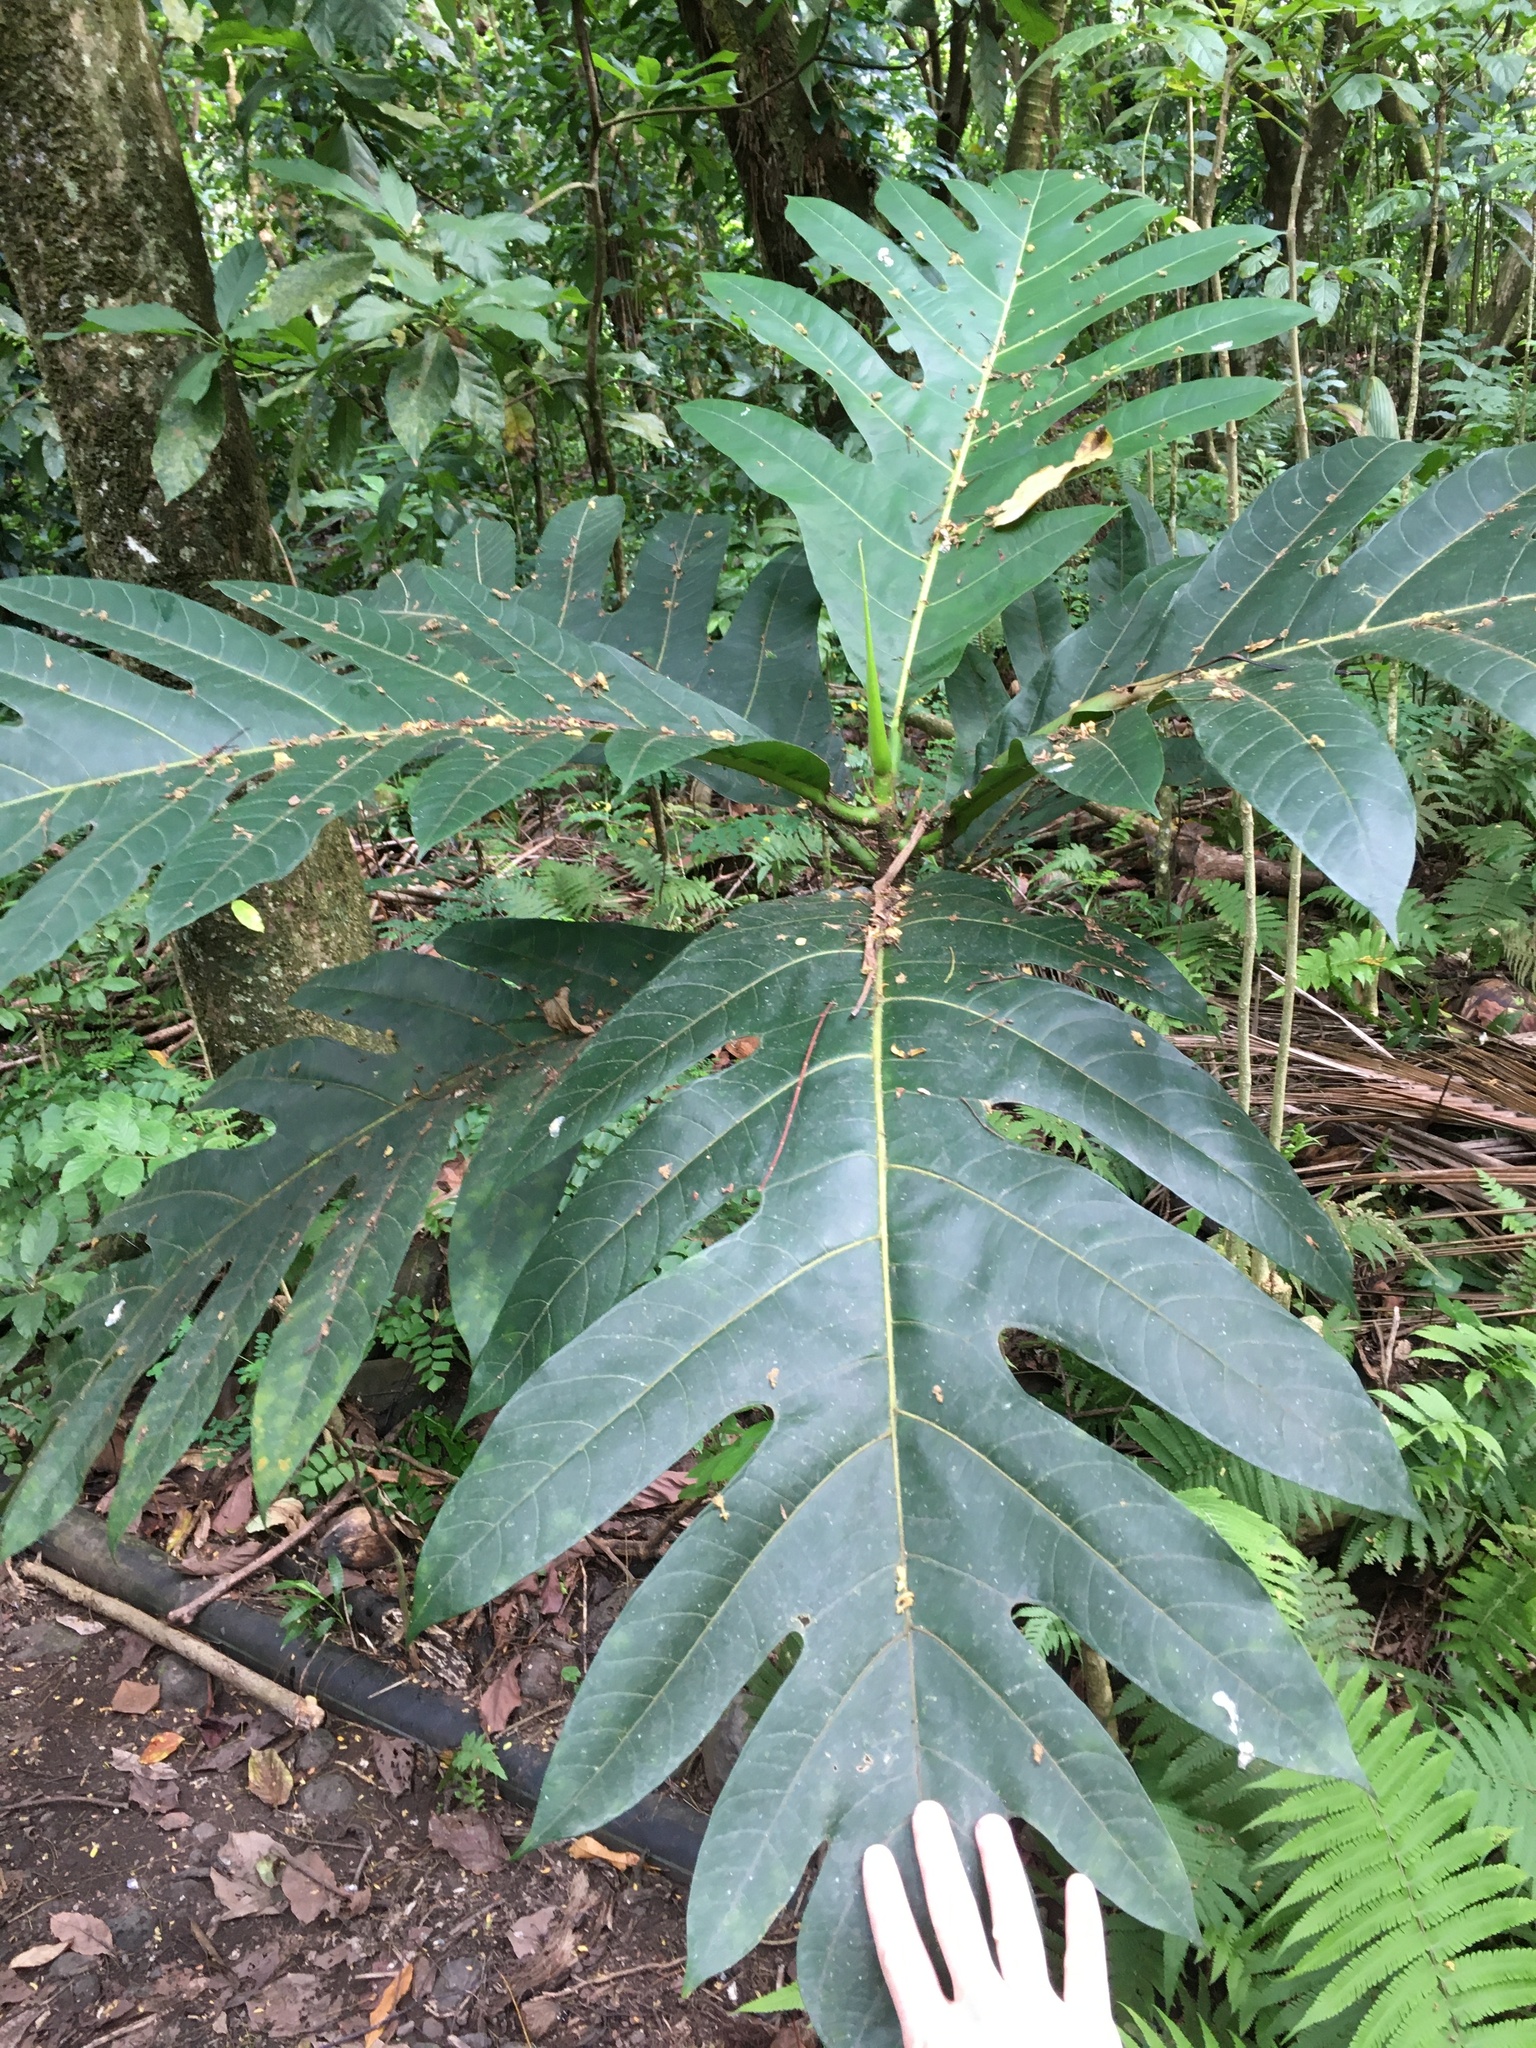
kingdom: Plantae
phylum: Tracheophyta
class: Magnoliopsida
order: Rosales
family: Moraceae
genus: Artocarpus
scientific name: Artocarpus altilis
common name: Breadfruit
